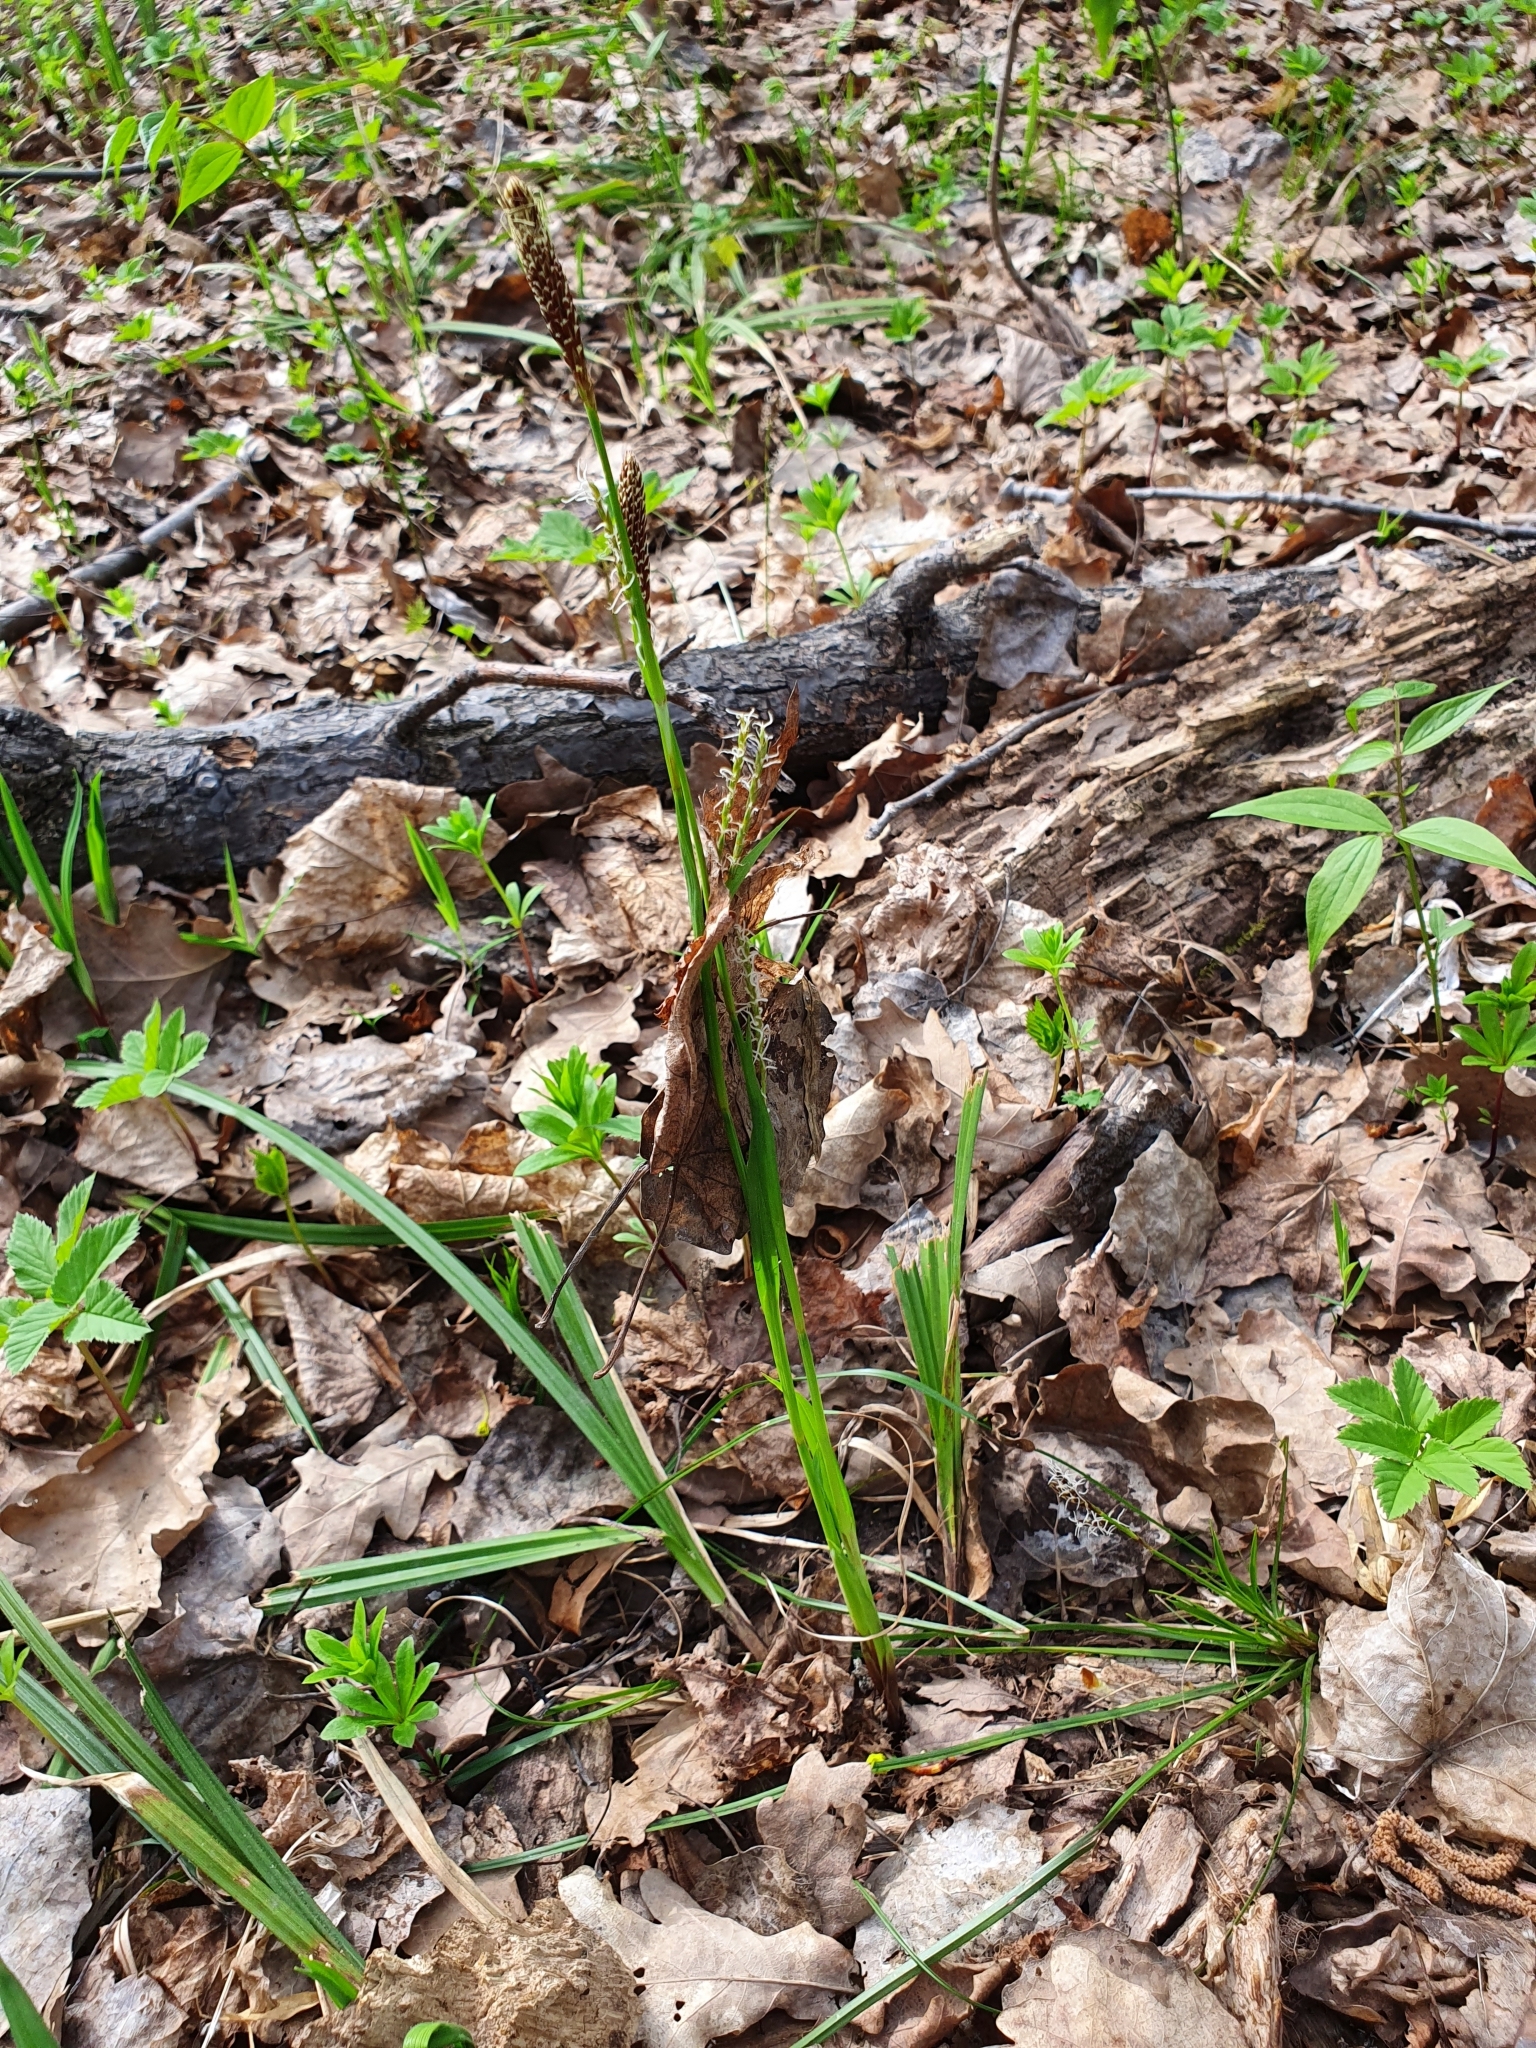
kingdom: Plantae
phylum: Tracheophyta
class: Liliopsida
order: Poales
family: Cyperaceae
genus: Carex
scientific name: Carex pilosa
